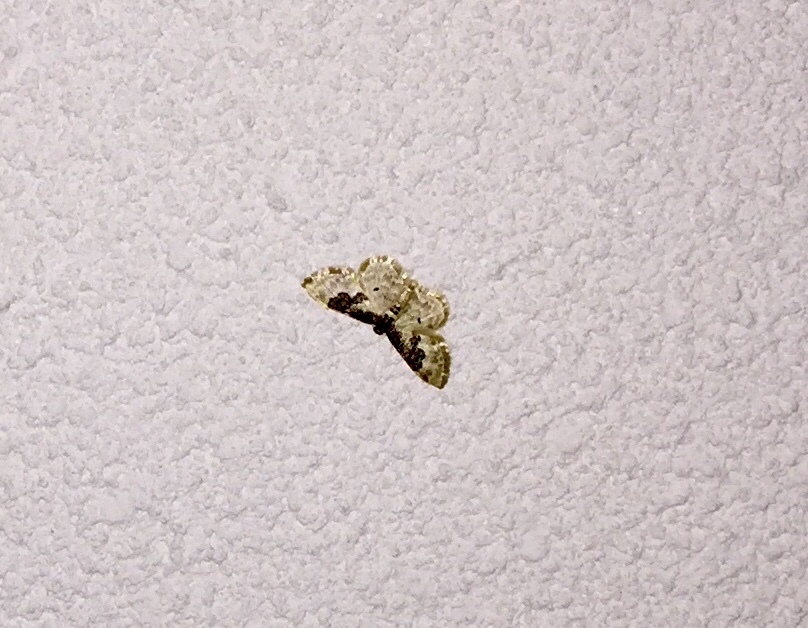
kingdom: Animalia
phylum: Arthropoda
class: Insecta
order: Lepidoptera
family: Geometridae
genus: Idaea
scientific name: Idaea rusticata
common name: Least carpet
